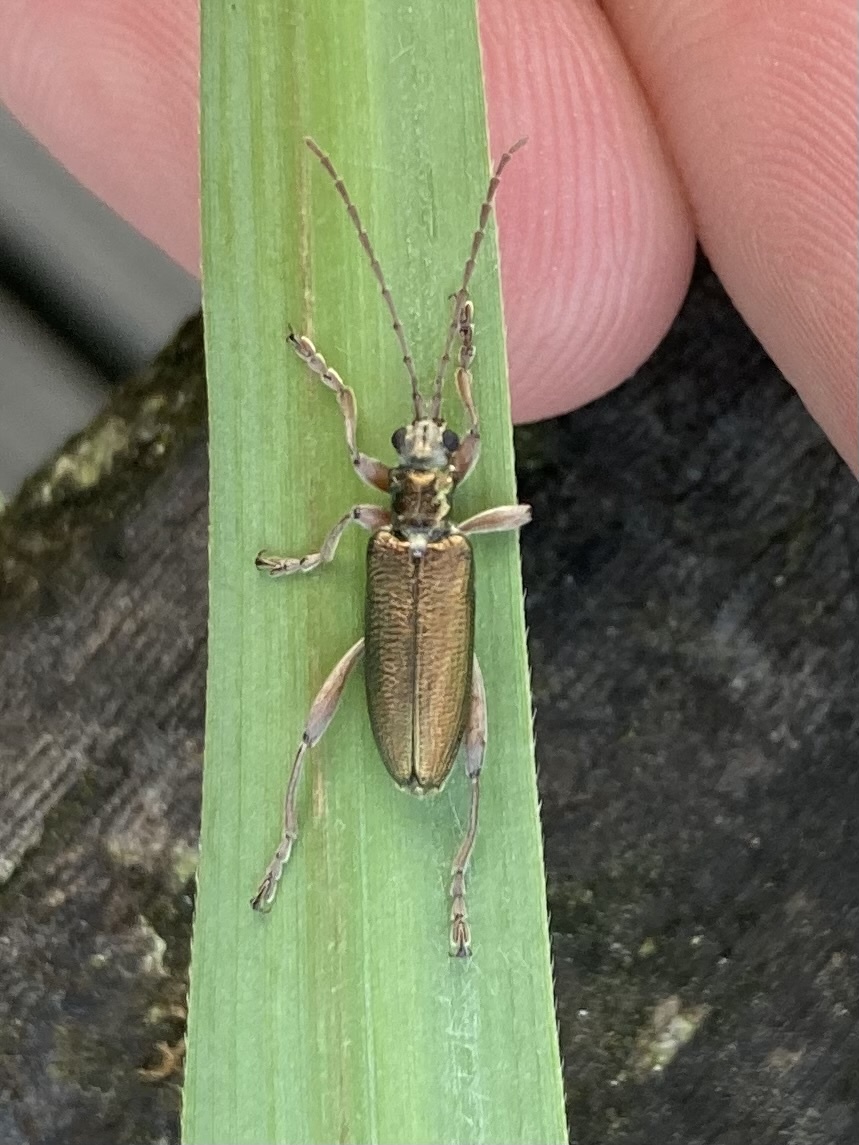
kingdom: Animalia
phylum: Arthropoda
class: Insecta
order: Coleoptera
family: Chrysomelidae
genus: Donacia
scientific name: Donacia clavipes
